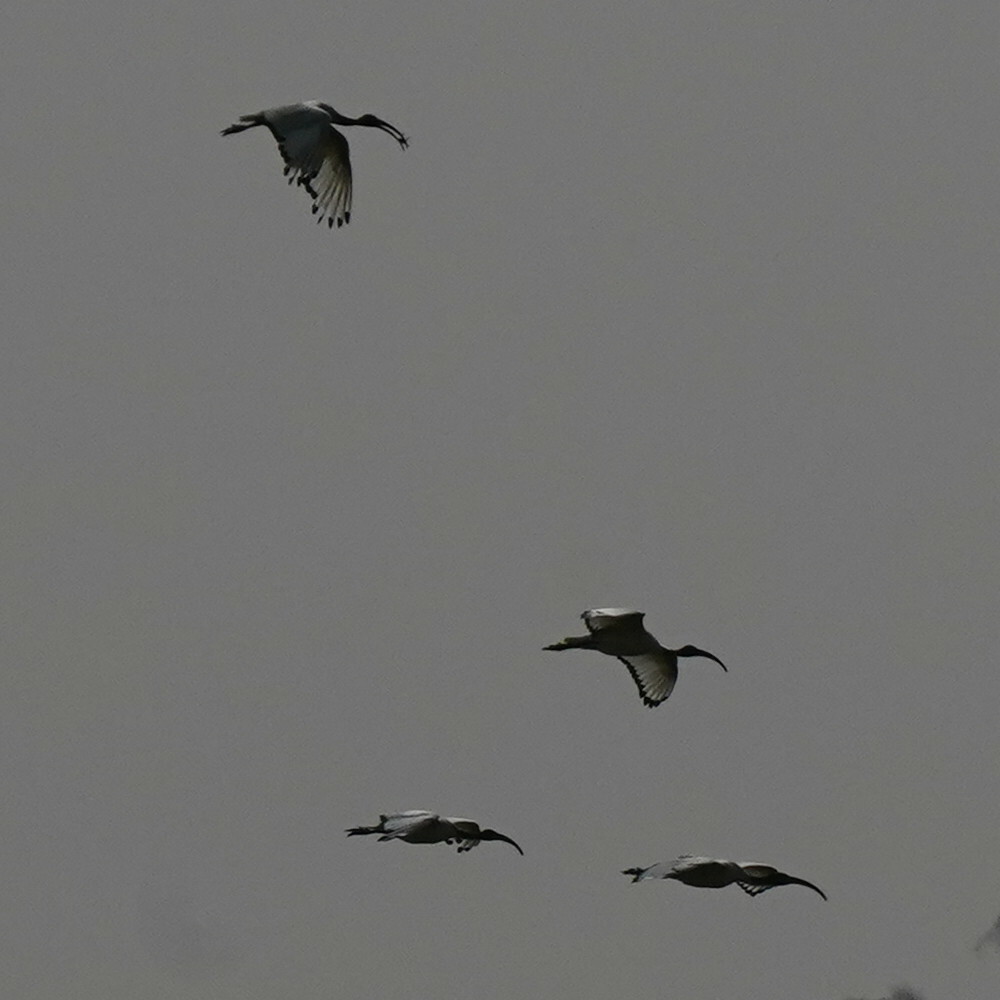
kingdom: Animalia
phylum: Chordata
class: Aves
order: Pelecaniformes
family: Threskiornithidae
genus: Threskiornis
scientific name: Threskiornis aethiopicus
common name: Sacred ibis
